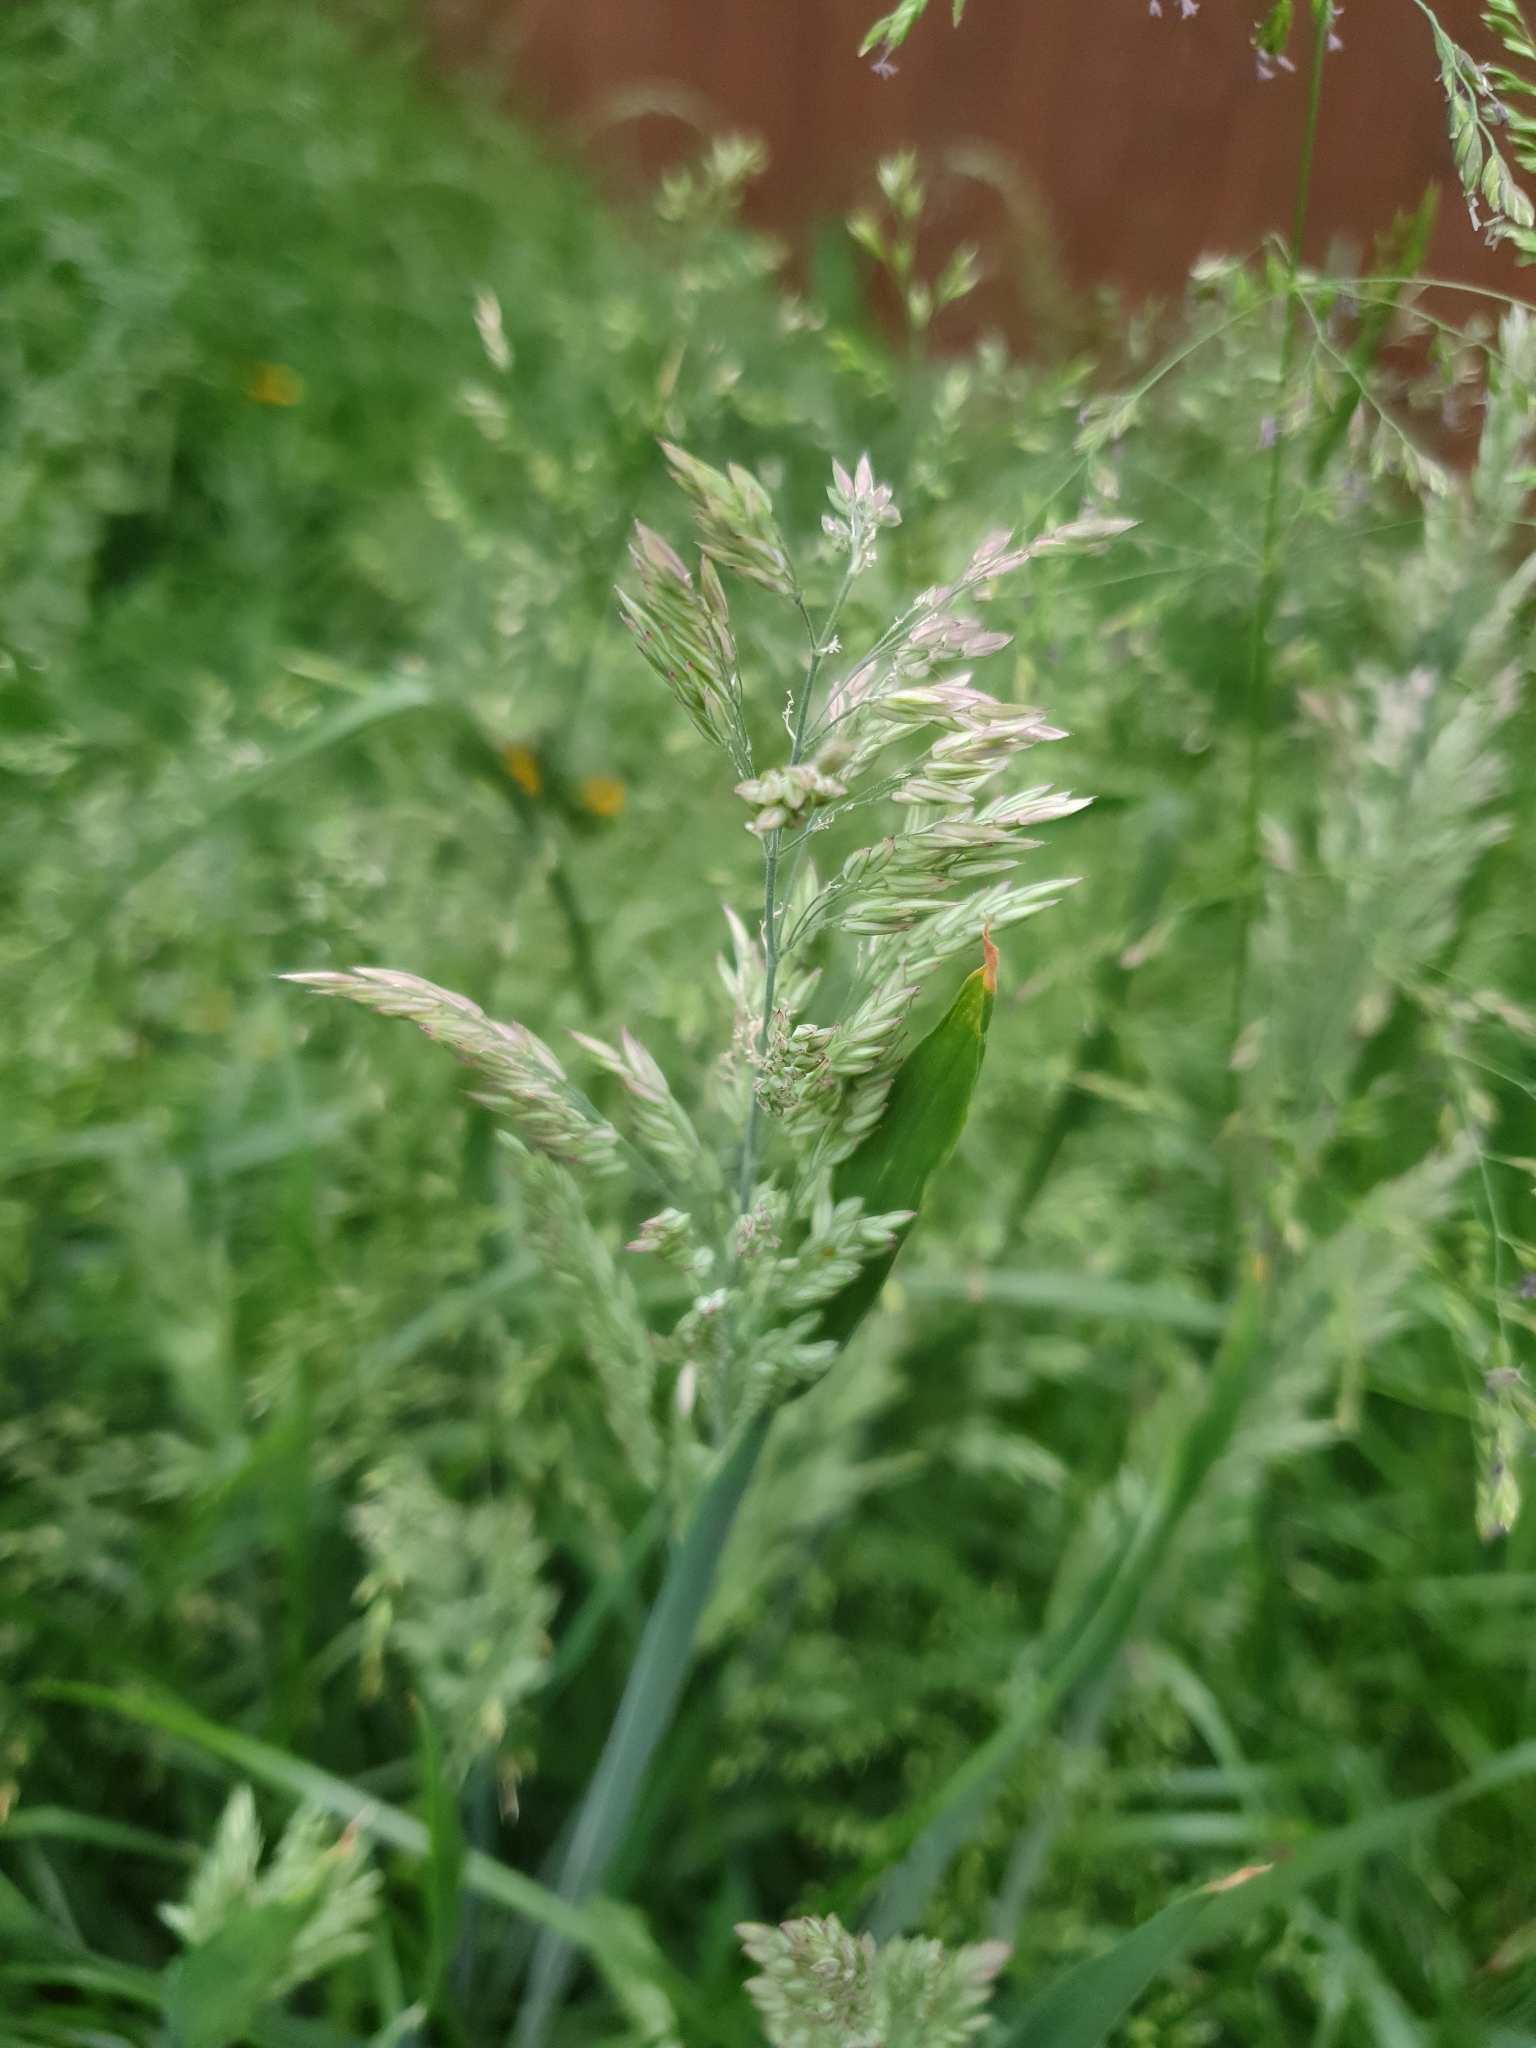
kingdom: Plantae
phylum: Tracheophyta
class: Liliopsida
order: Poales
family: Poaceae
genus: Holcus
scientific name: Holcus lanatus
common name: Yorkshire-fog
